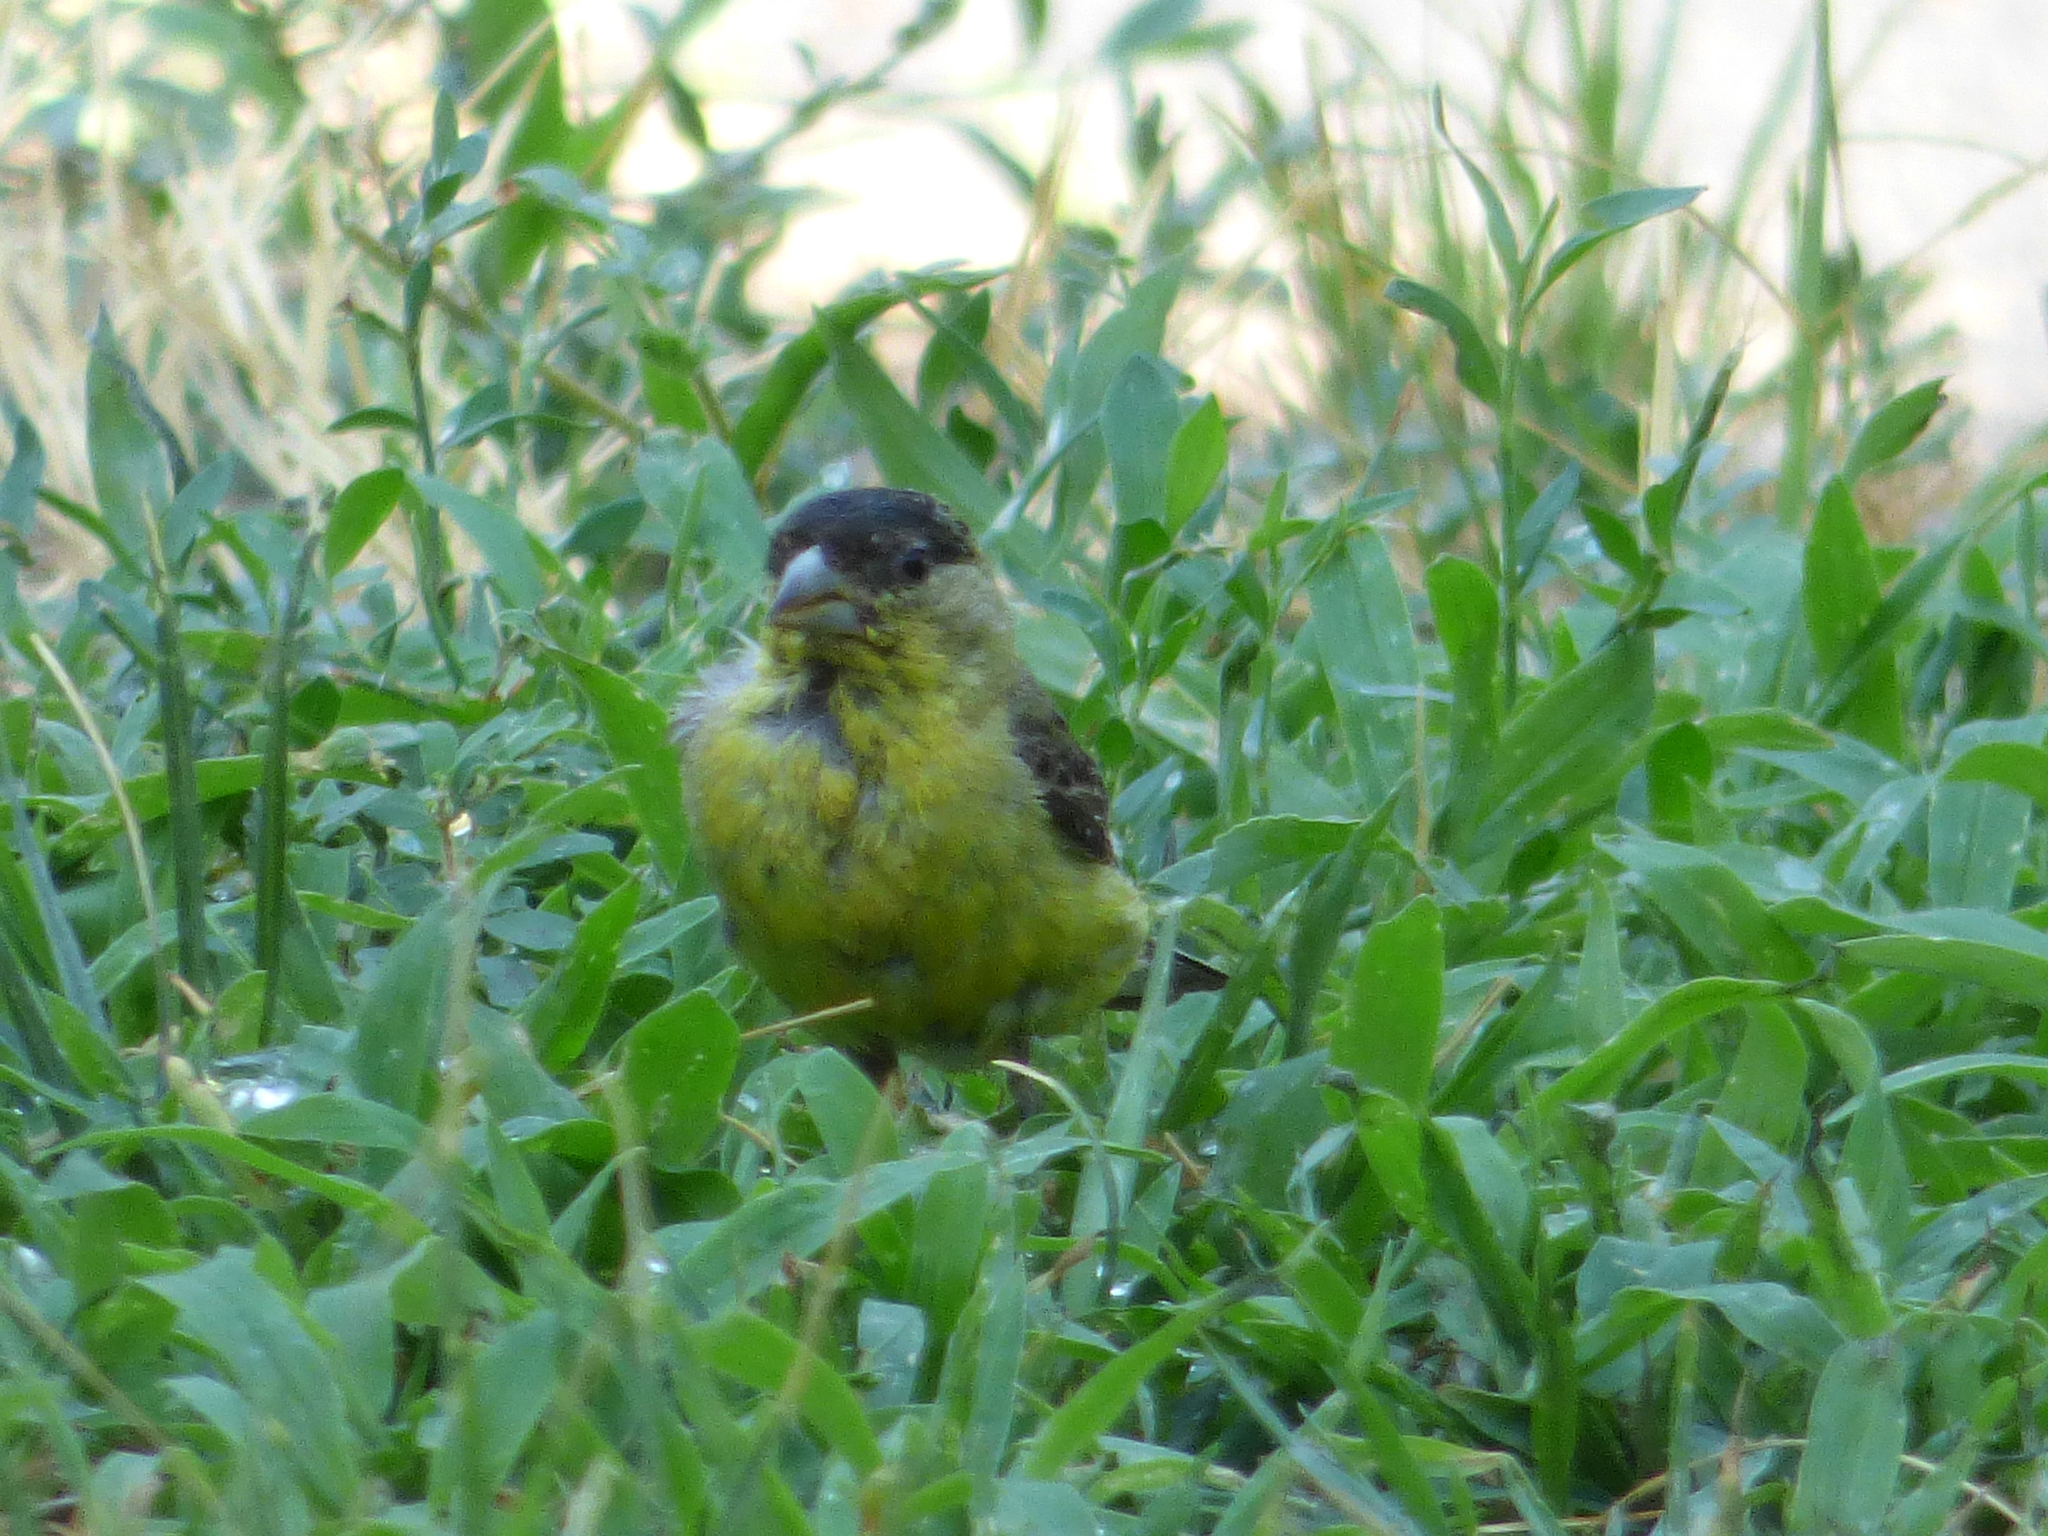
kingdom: Animalia
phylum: Chordata
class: Aves
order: Passeriformes
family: Fringillidae
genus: Spinus
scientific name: Spinus psaltria
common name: Lesser goldfinch
